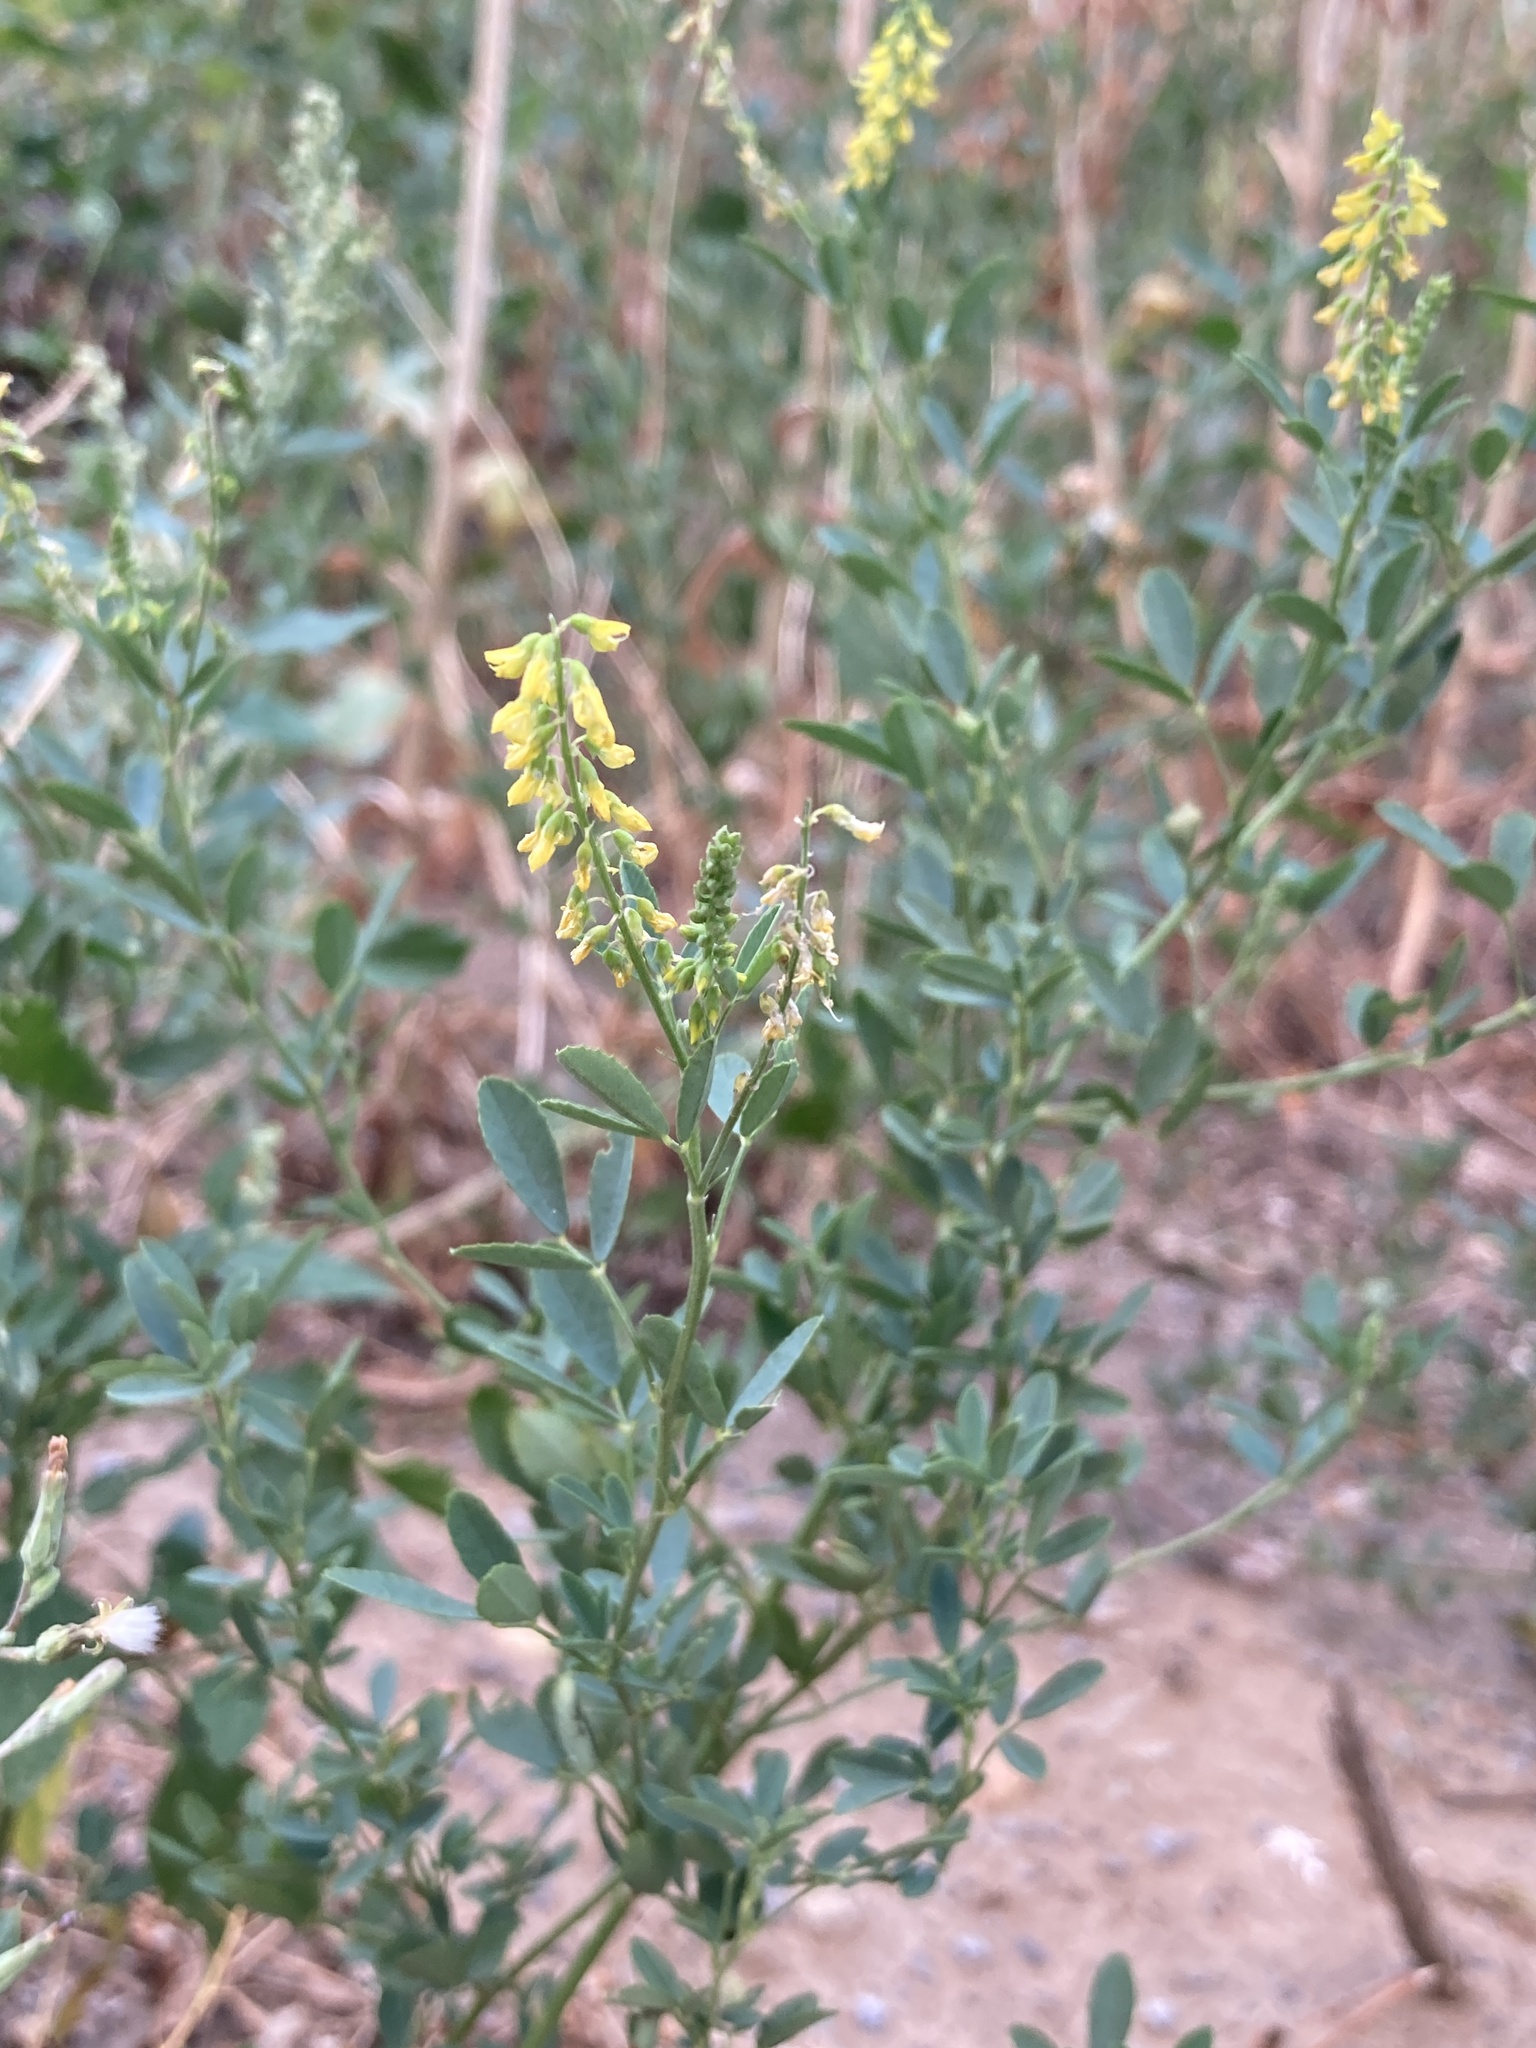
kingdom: Plantae
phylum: Tracheophyta
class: Magnoliopsida
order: Fabales
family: Fabaceae
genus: Melilotus
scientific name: Melilotus officinalis
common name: Sweetclover
